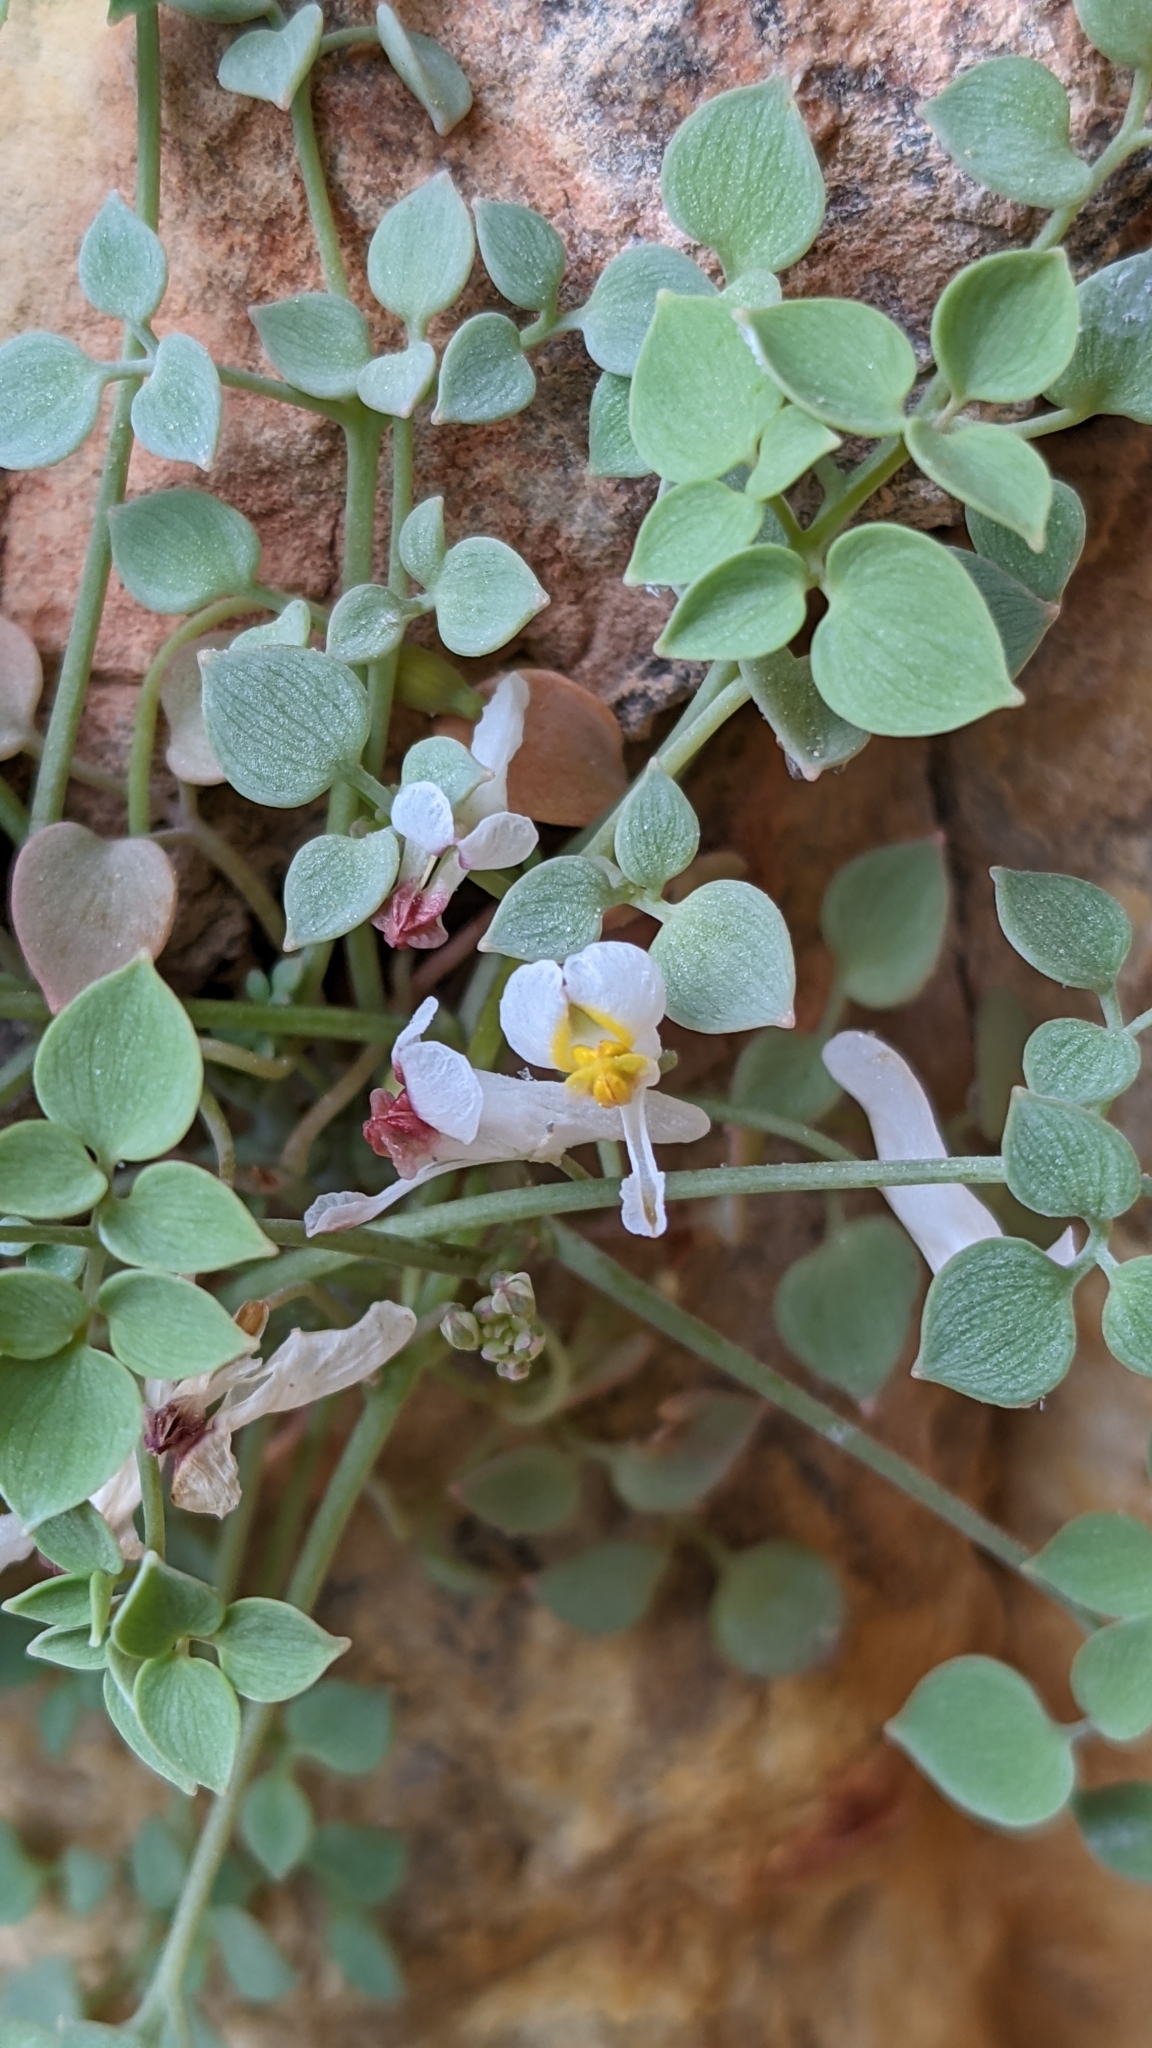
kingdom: Plantae
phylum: Tracheophyta
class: Magnoliopsida
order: Ranunculales
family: Papaveraceae
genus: Sarcocapnos
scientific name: Sarcocapnos enneaphylla
